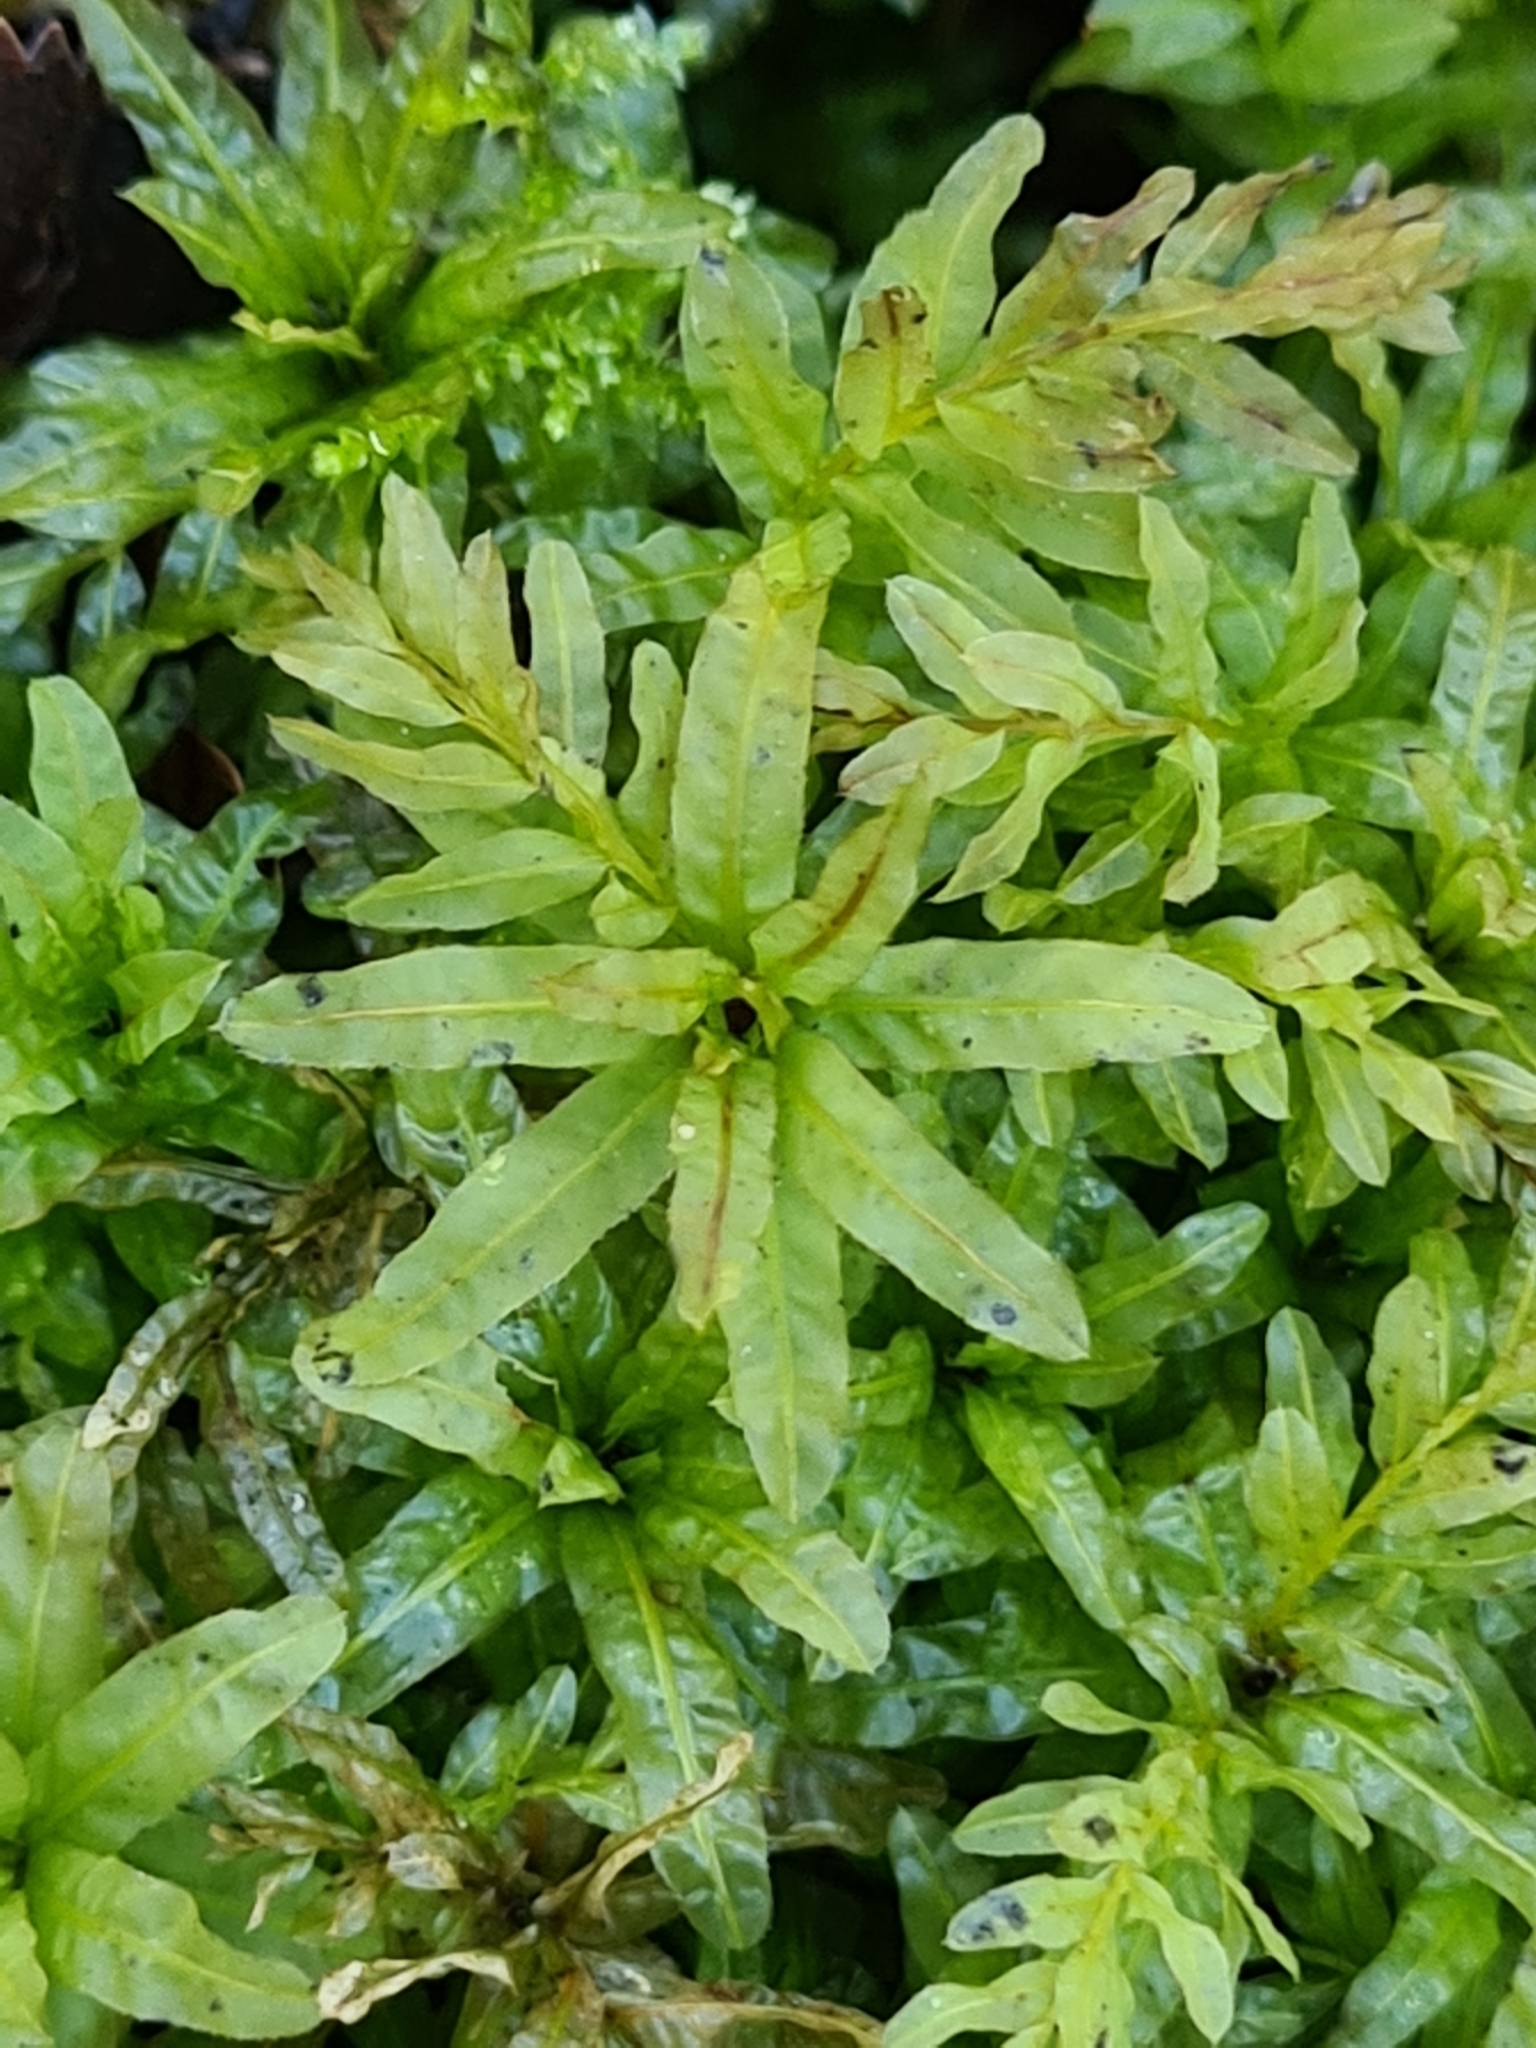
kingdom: Plantae
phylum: Bryophyta
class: Bryopsida
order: Bryales
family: Mniaceae
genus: Plagiomnium
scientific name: Plagiomnium undulatum
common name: Hart's-tongue thyme-moss
